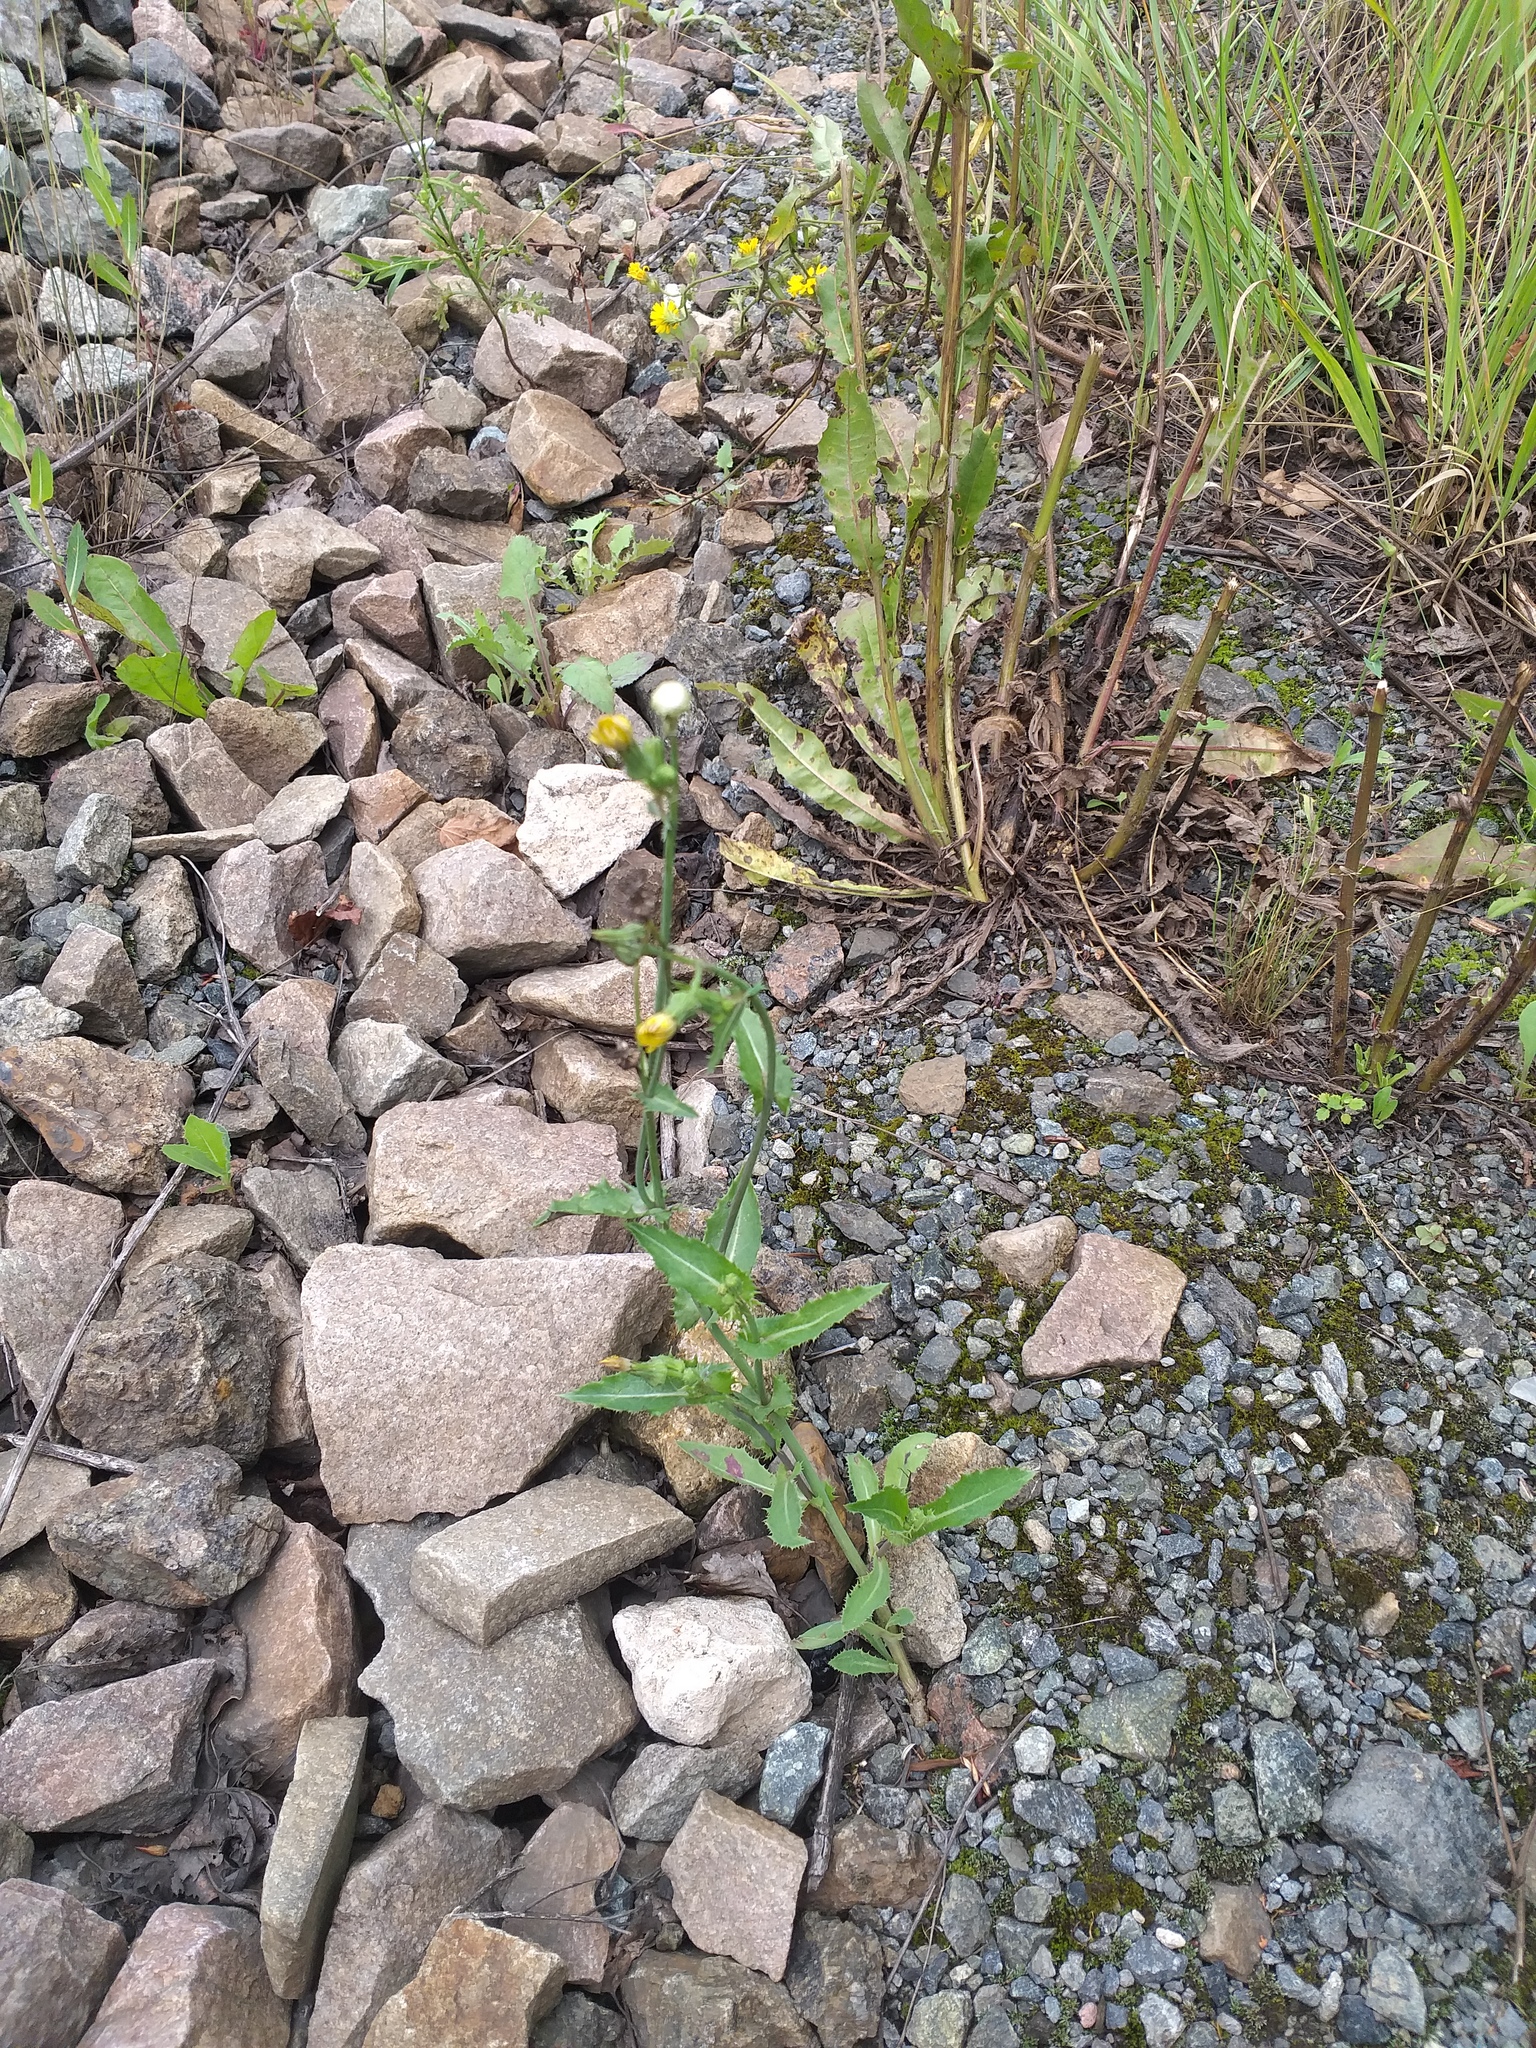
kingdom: Plantae
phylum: Tracheophyta
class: Magnoliopsida
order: Asterales
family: Asteraceae
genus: Sonchus
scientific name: Sonchus asper
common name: Prickly sow-thistle
